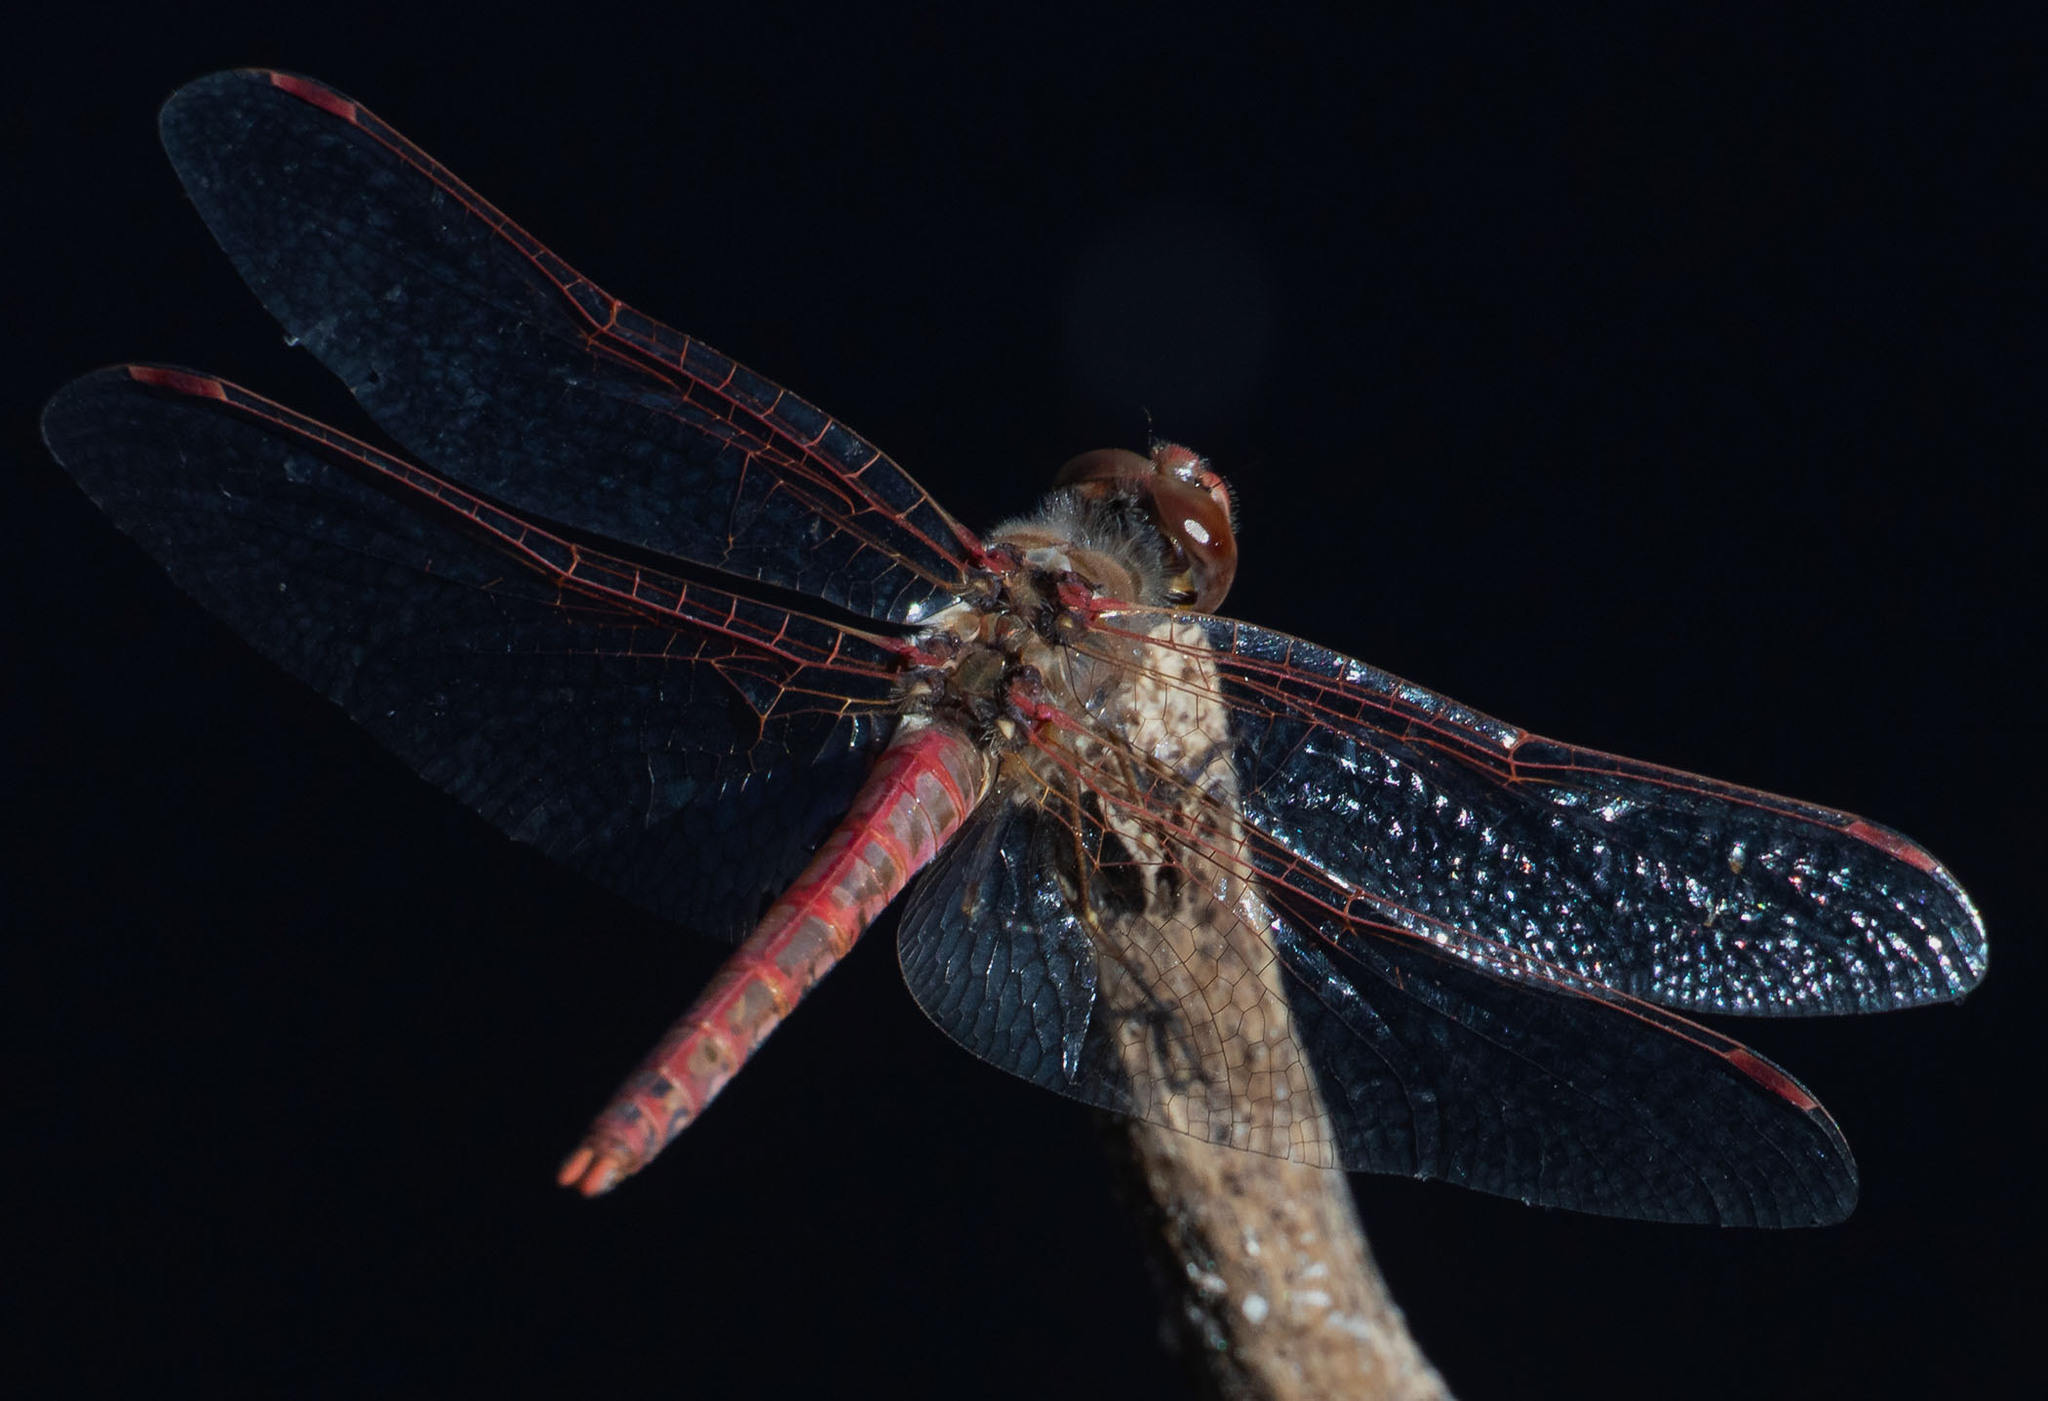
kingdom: Animalia
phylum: Arthropoda
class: Insecta
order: Odonata
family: Libellulidae
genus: Sympetrum
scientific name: Sympetrum corruptum
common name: Variegated meadowhawk
